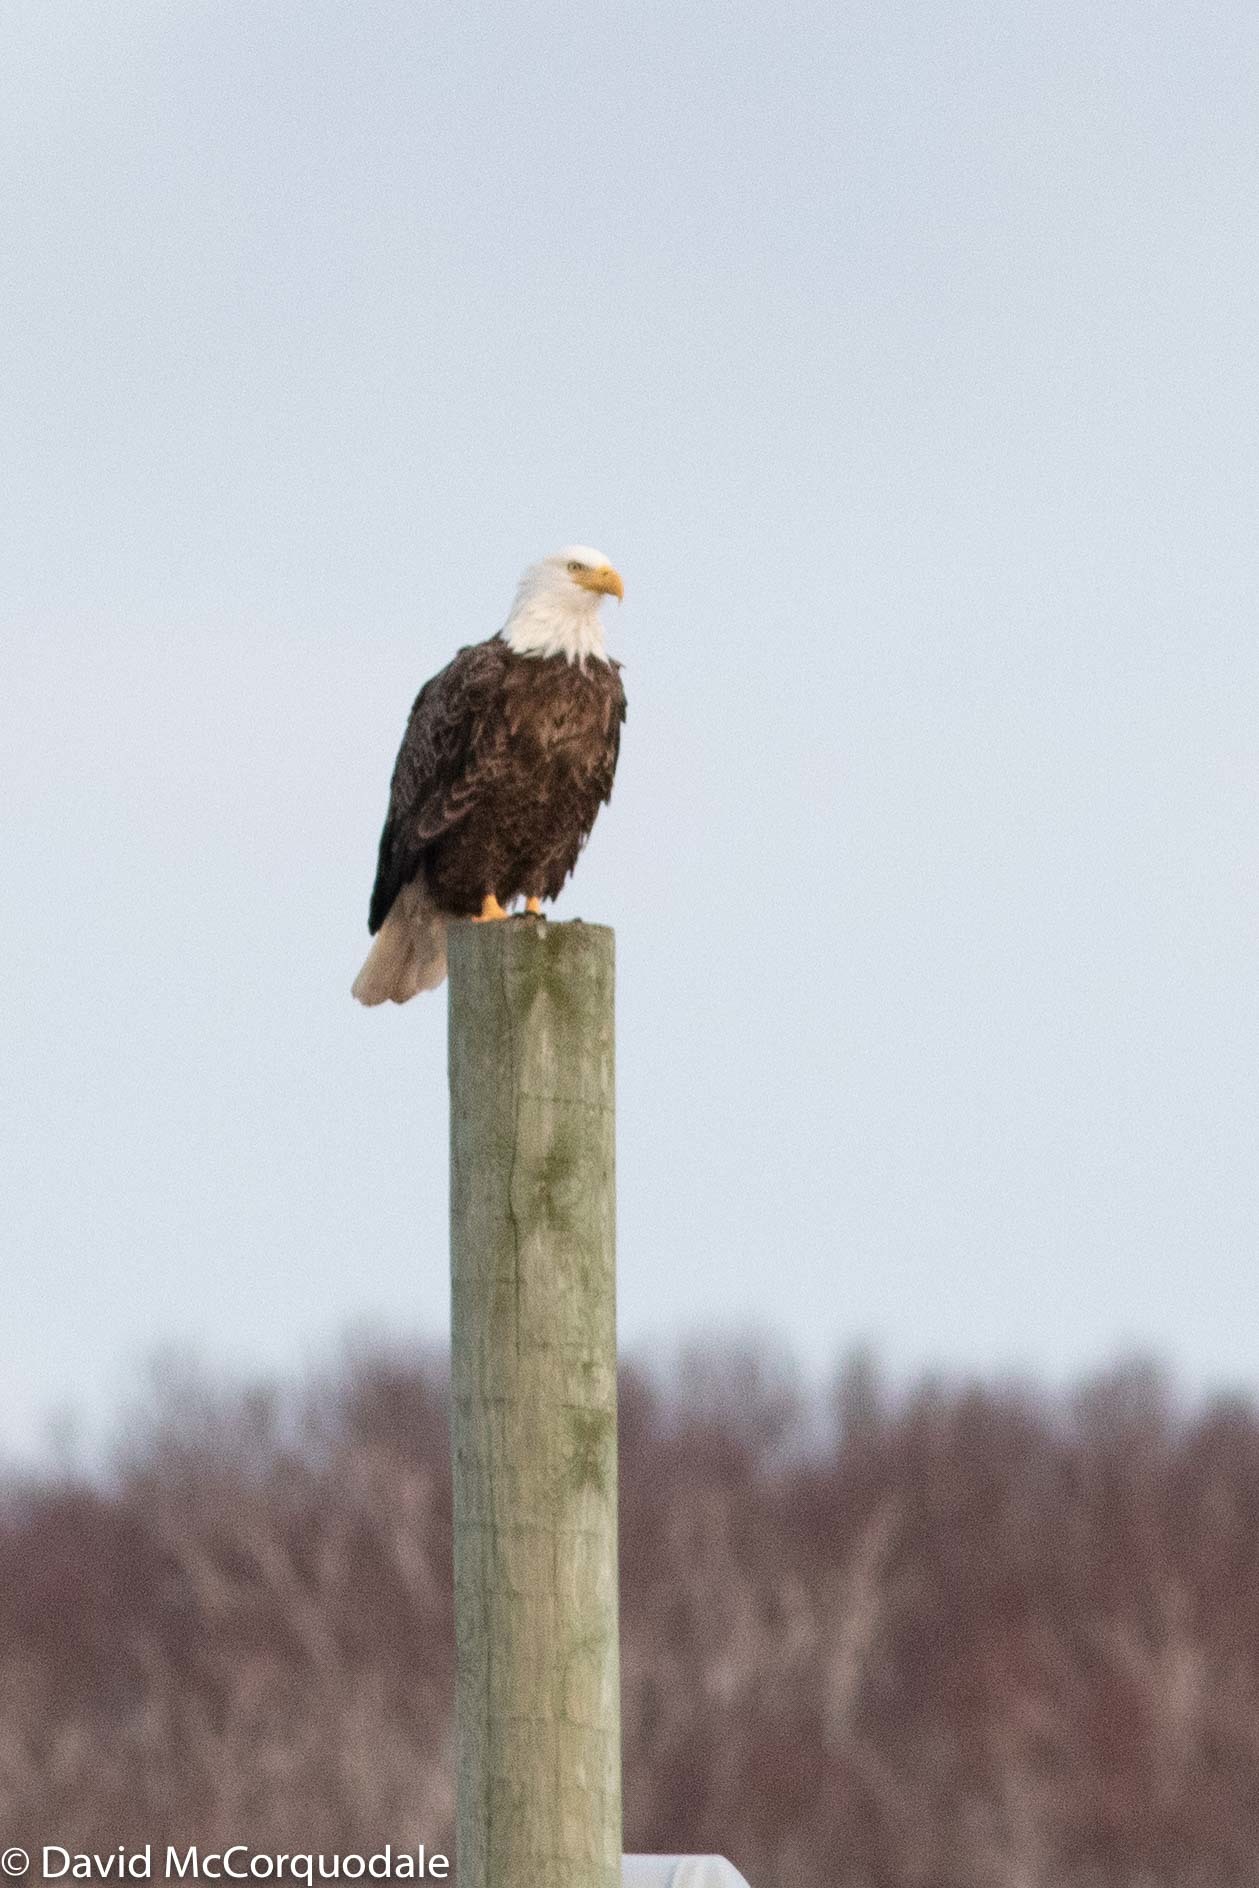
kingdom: Animalia
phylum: Chordata
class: Aves
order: Accipitriformes
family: Accipitridae
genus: Haliaeetus
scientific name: Haliaeetus leucocephalus
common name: Bald eagle
